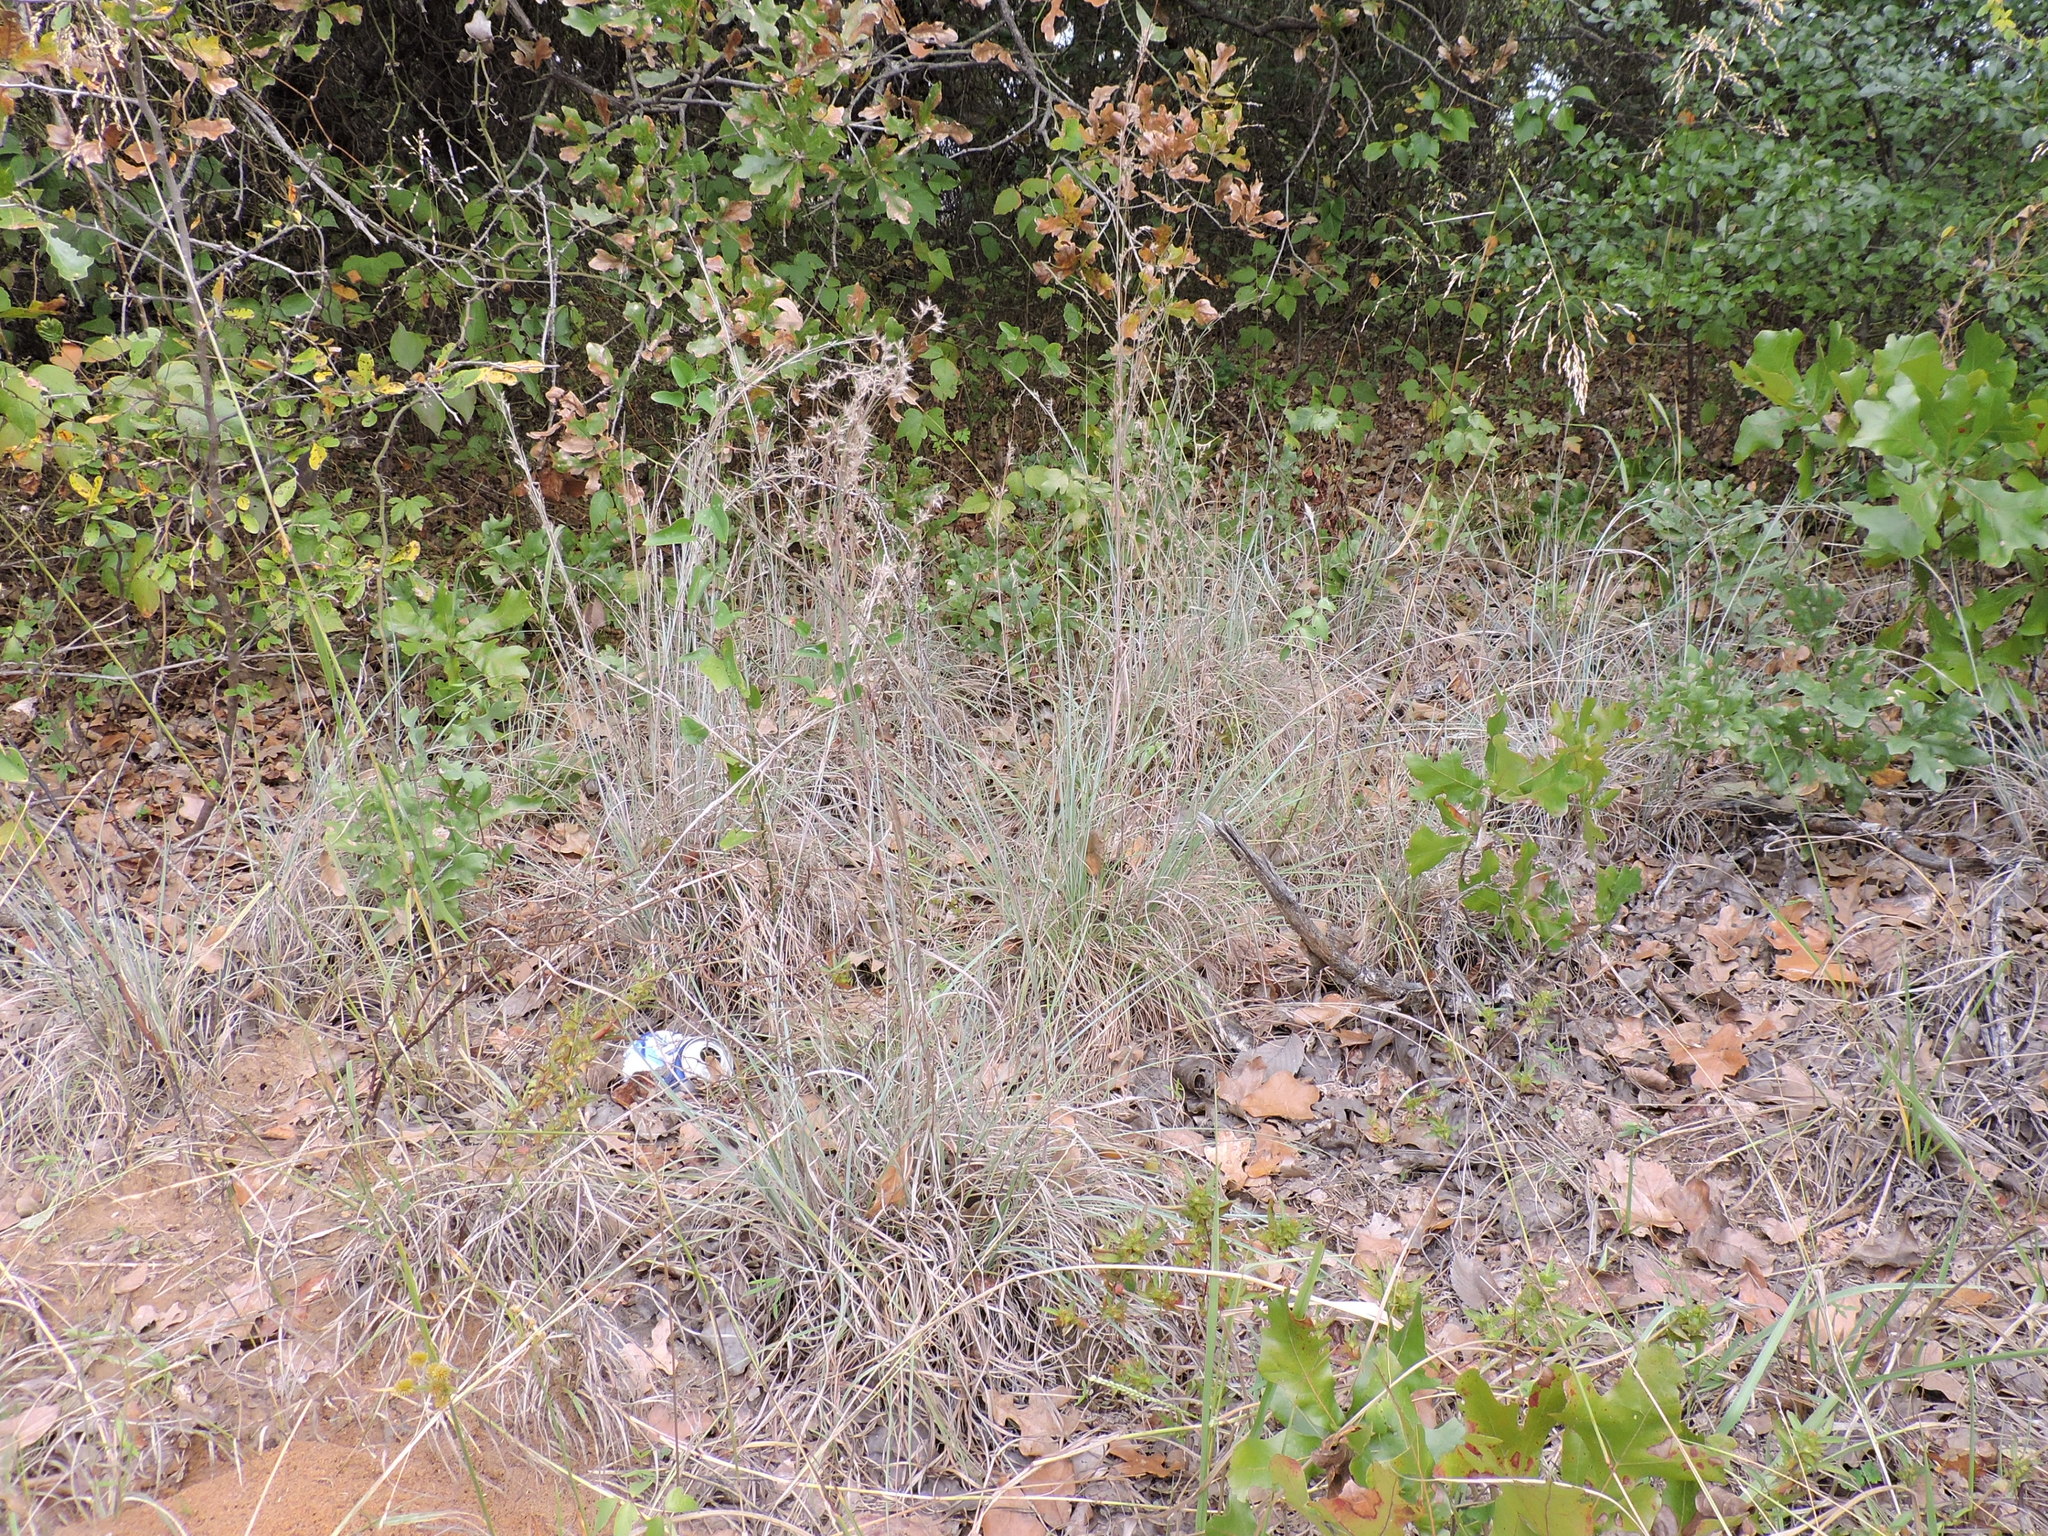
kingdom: Plantae
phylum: Tracheophyta
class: Liliopsida
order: Poales
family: Poaceae
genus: Schizachyrium
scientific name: Schizachyrium scoparium
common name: Little bluestem
